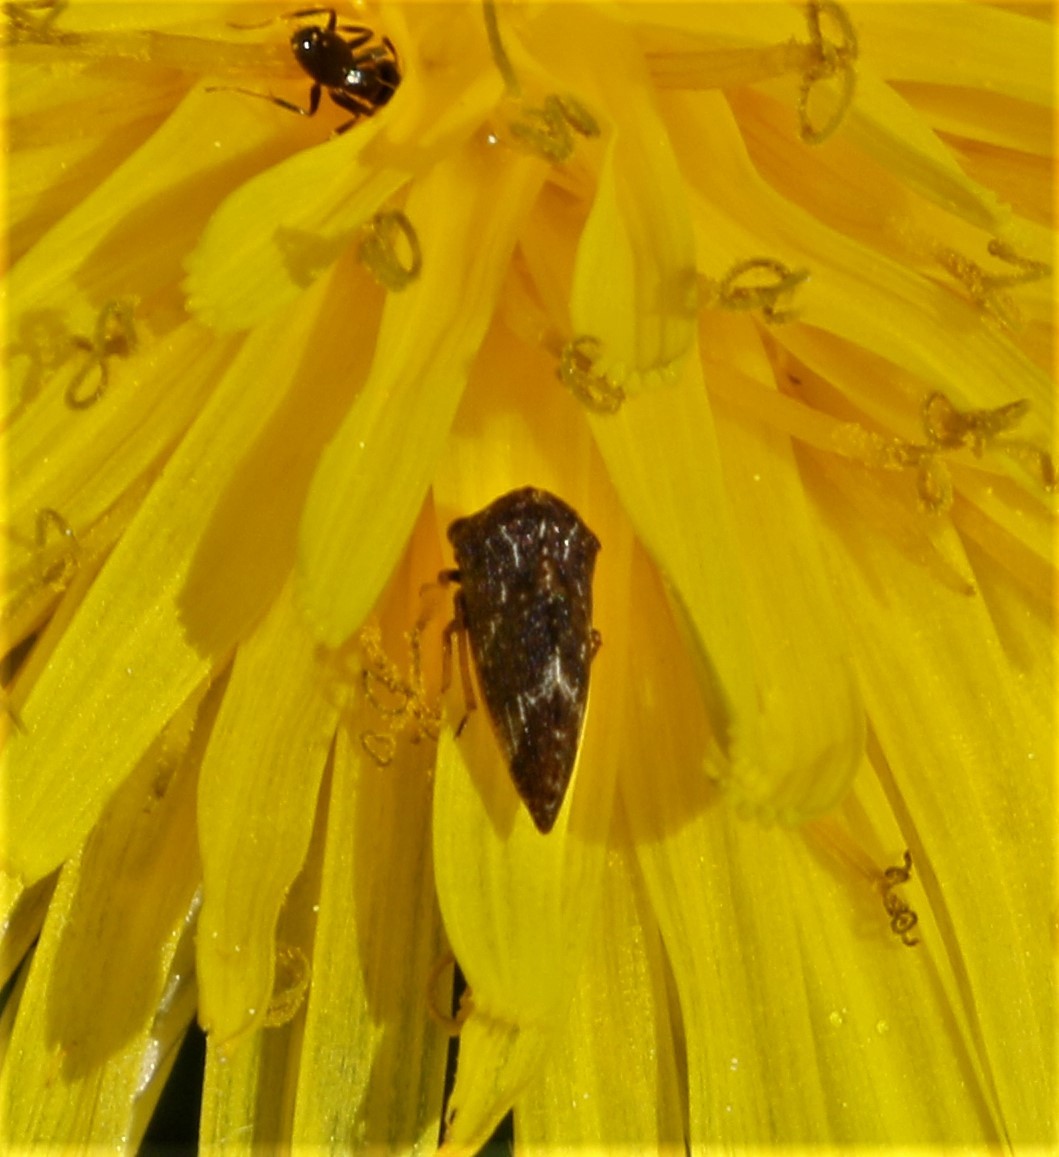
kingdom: Animalia
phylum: Arthropoda
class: Insecta
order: Hemiptera
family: Membracidae
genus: Publilia
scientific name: Publilia concava
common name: Aster treehopper
